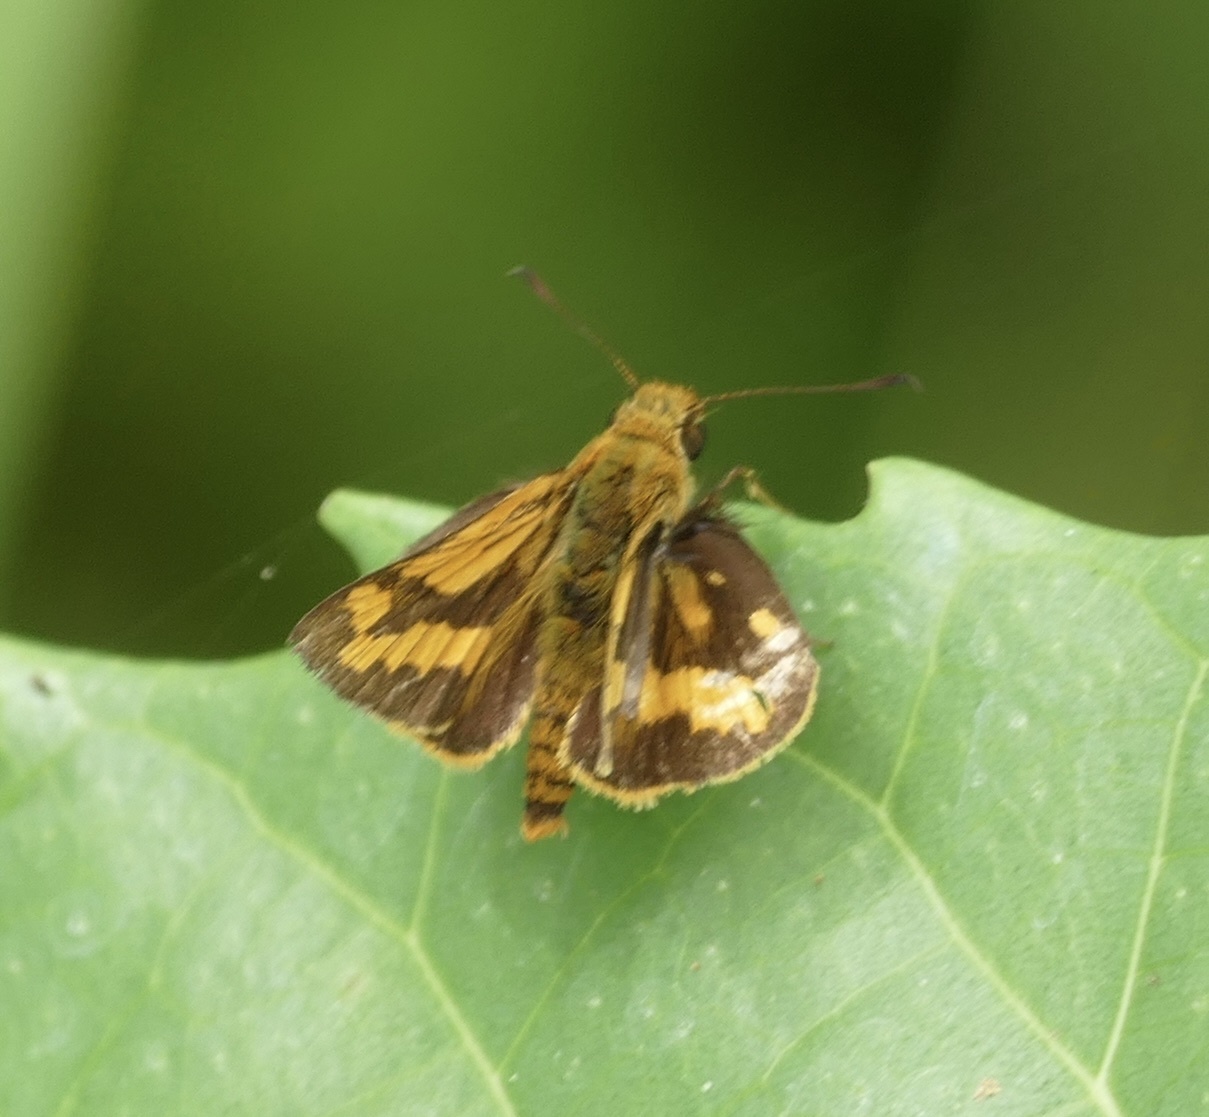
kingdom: Animalia
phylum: Arthropoda
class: Insecta
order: Lepidoptera
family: Hesperiidae
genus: Taractrocera
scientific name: Taractrocera
